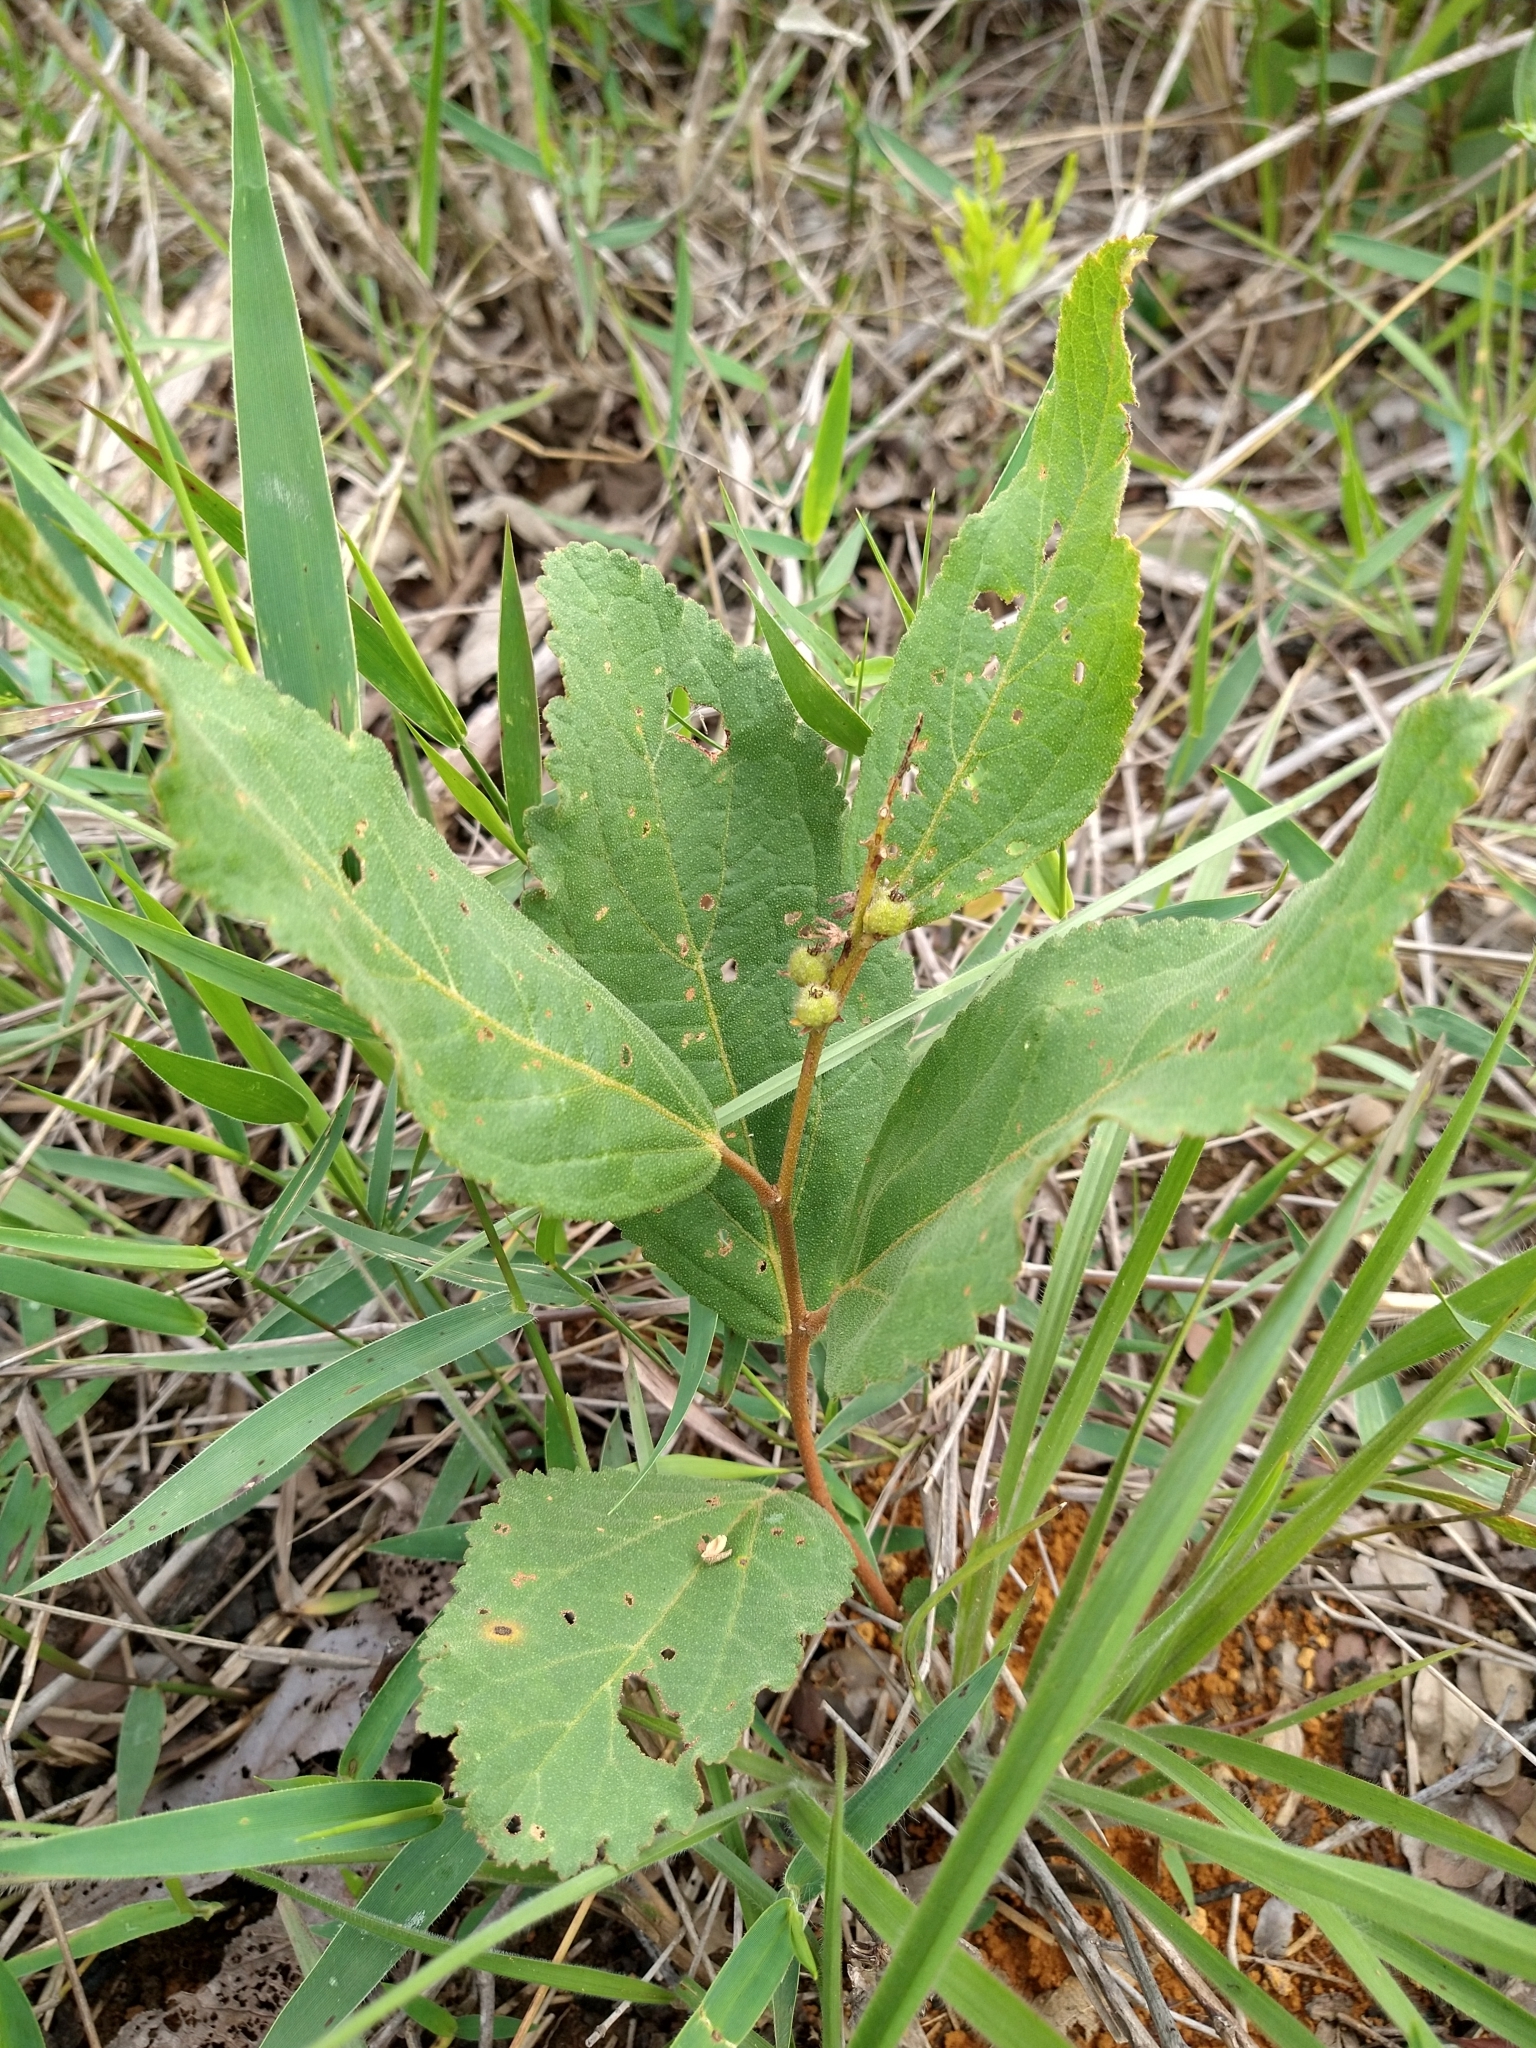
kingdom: Plantae
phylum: Tracheophyta
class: Magnoliopsida
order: Malpighiales
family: Euphorbiaceae
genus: Croton
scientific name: Croton antisyphiliticus
